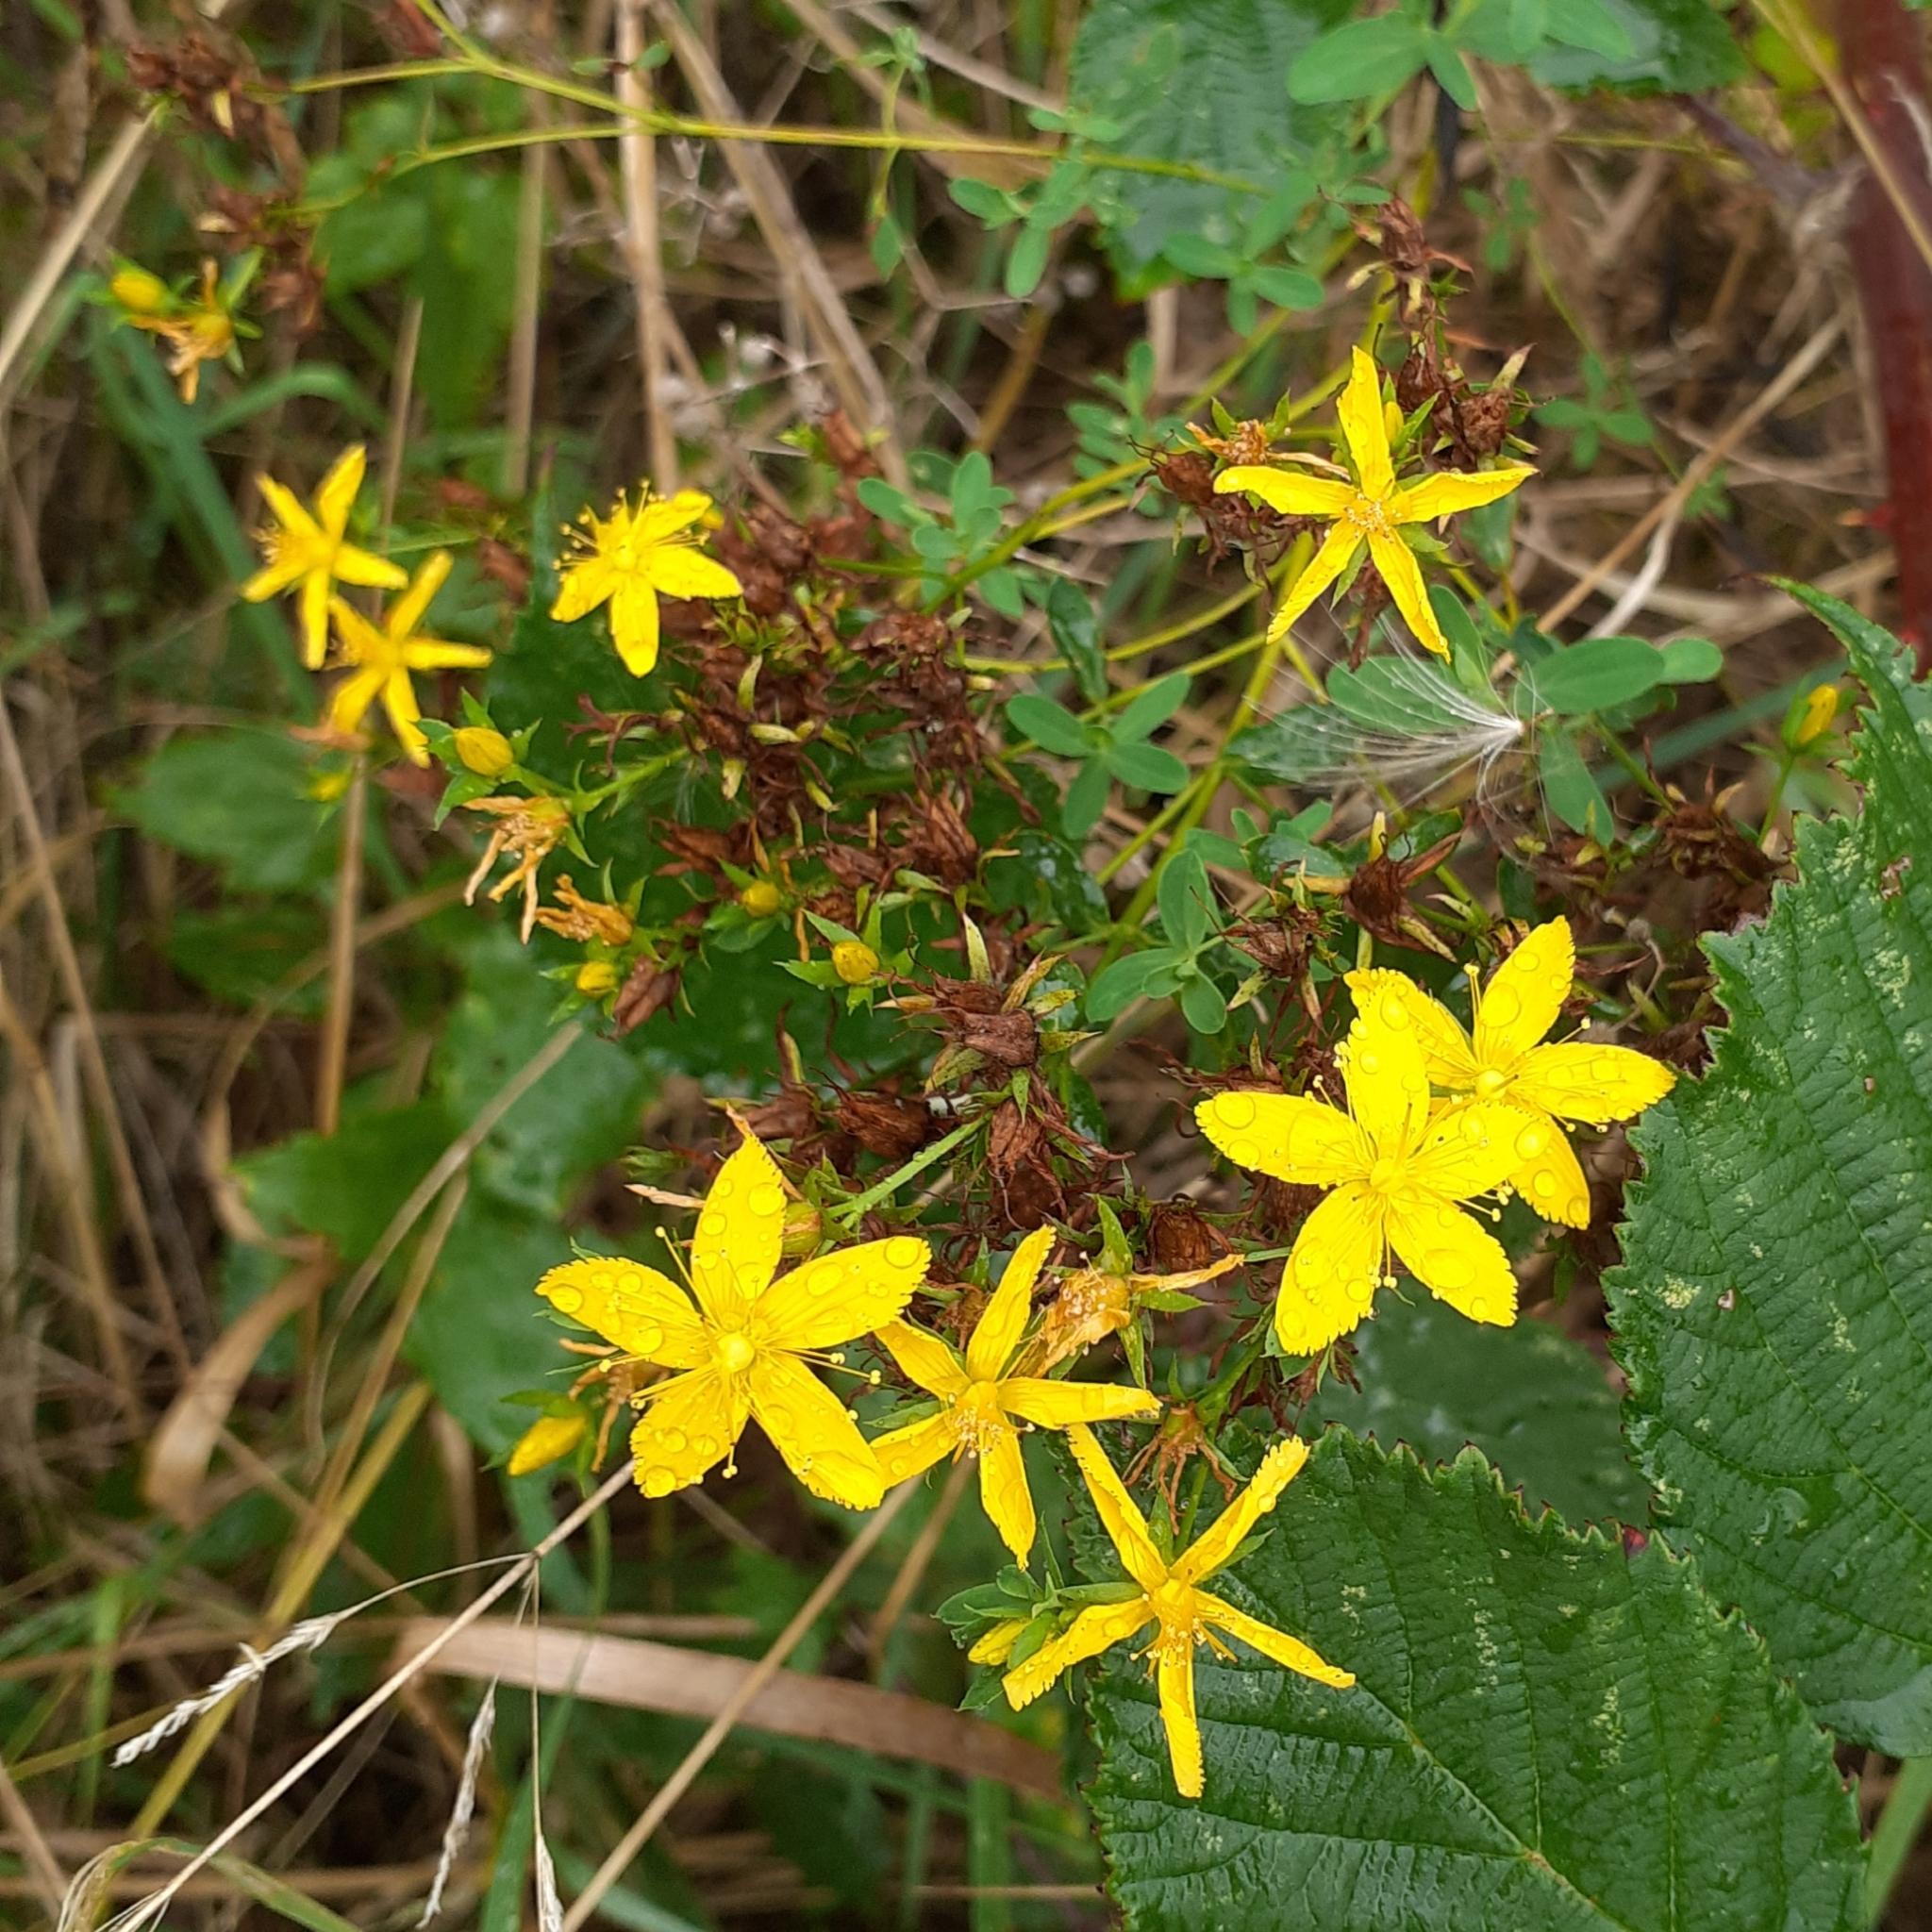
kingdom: Plantae
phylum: Tracheophyta
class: Magnoliopsida
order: Malpighiales
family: Hypericaceae
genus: Hypericum
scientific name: Hypericum perforatum
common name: Common st. johnswort
